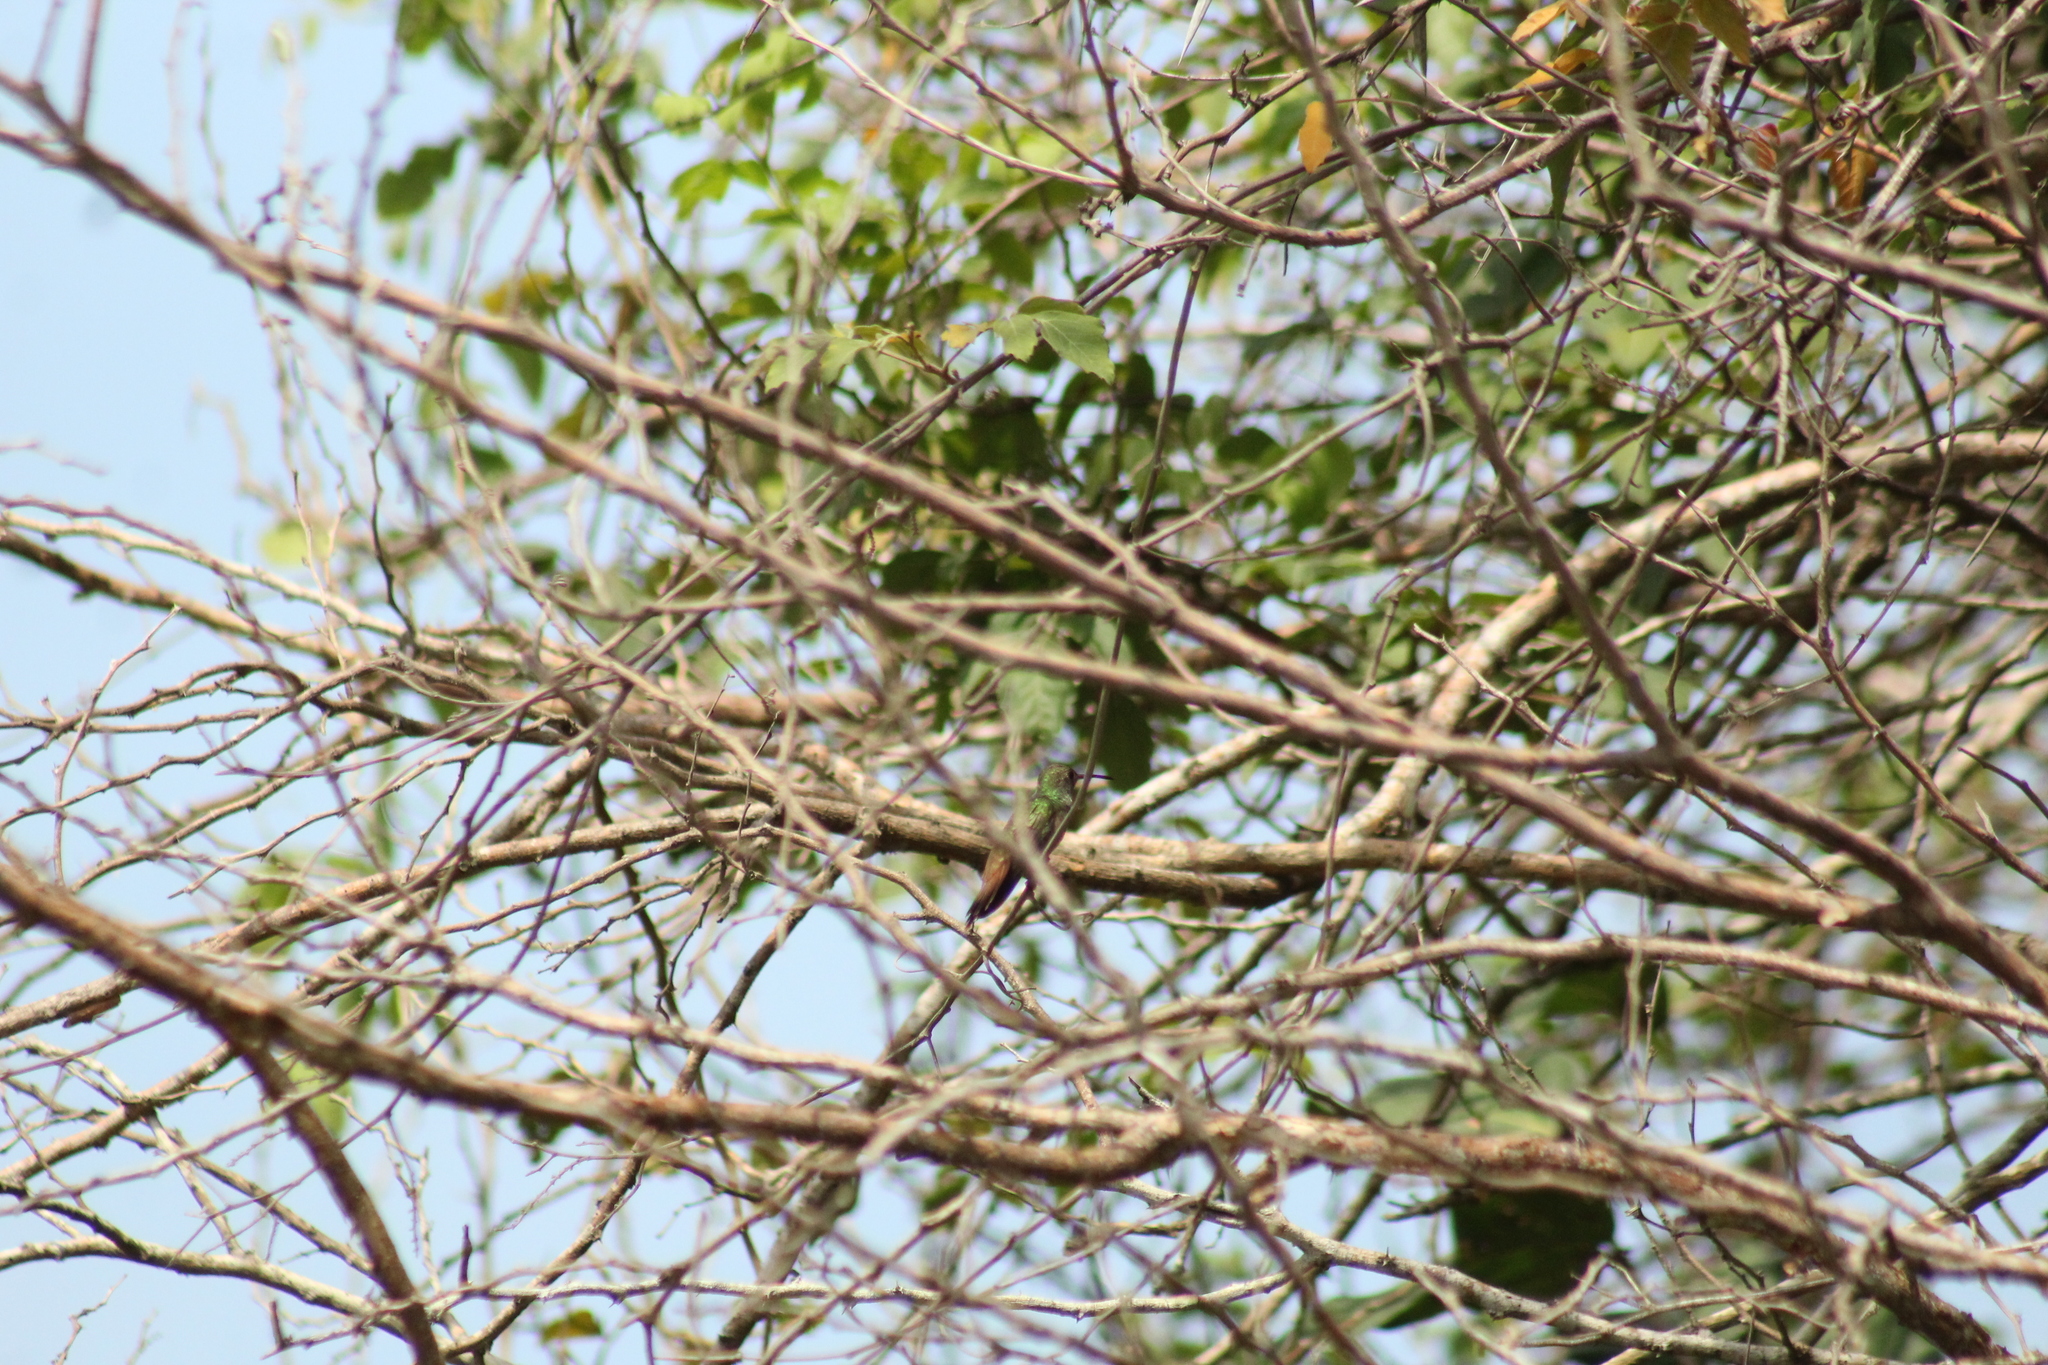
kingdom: Animalia
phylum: Chordata
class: Aves
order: Apodiformes
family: Trochilidae
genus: Amazilia
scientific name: Amazilia yucatanensis
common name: Buff-bellied hummingbird
